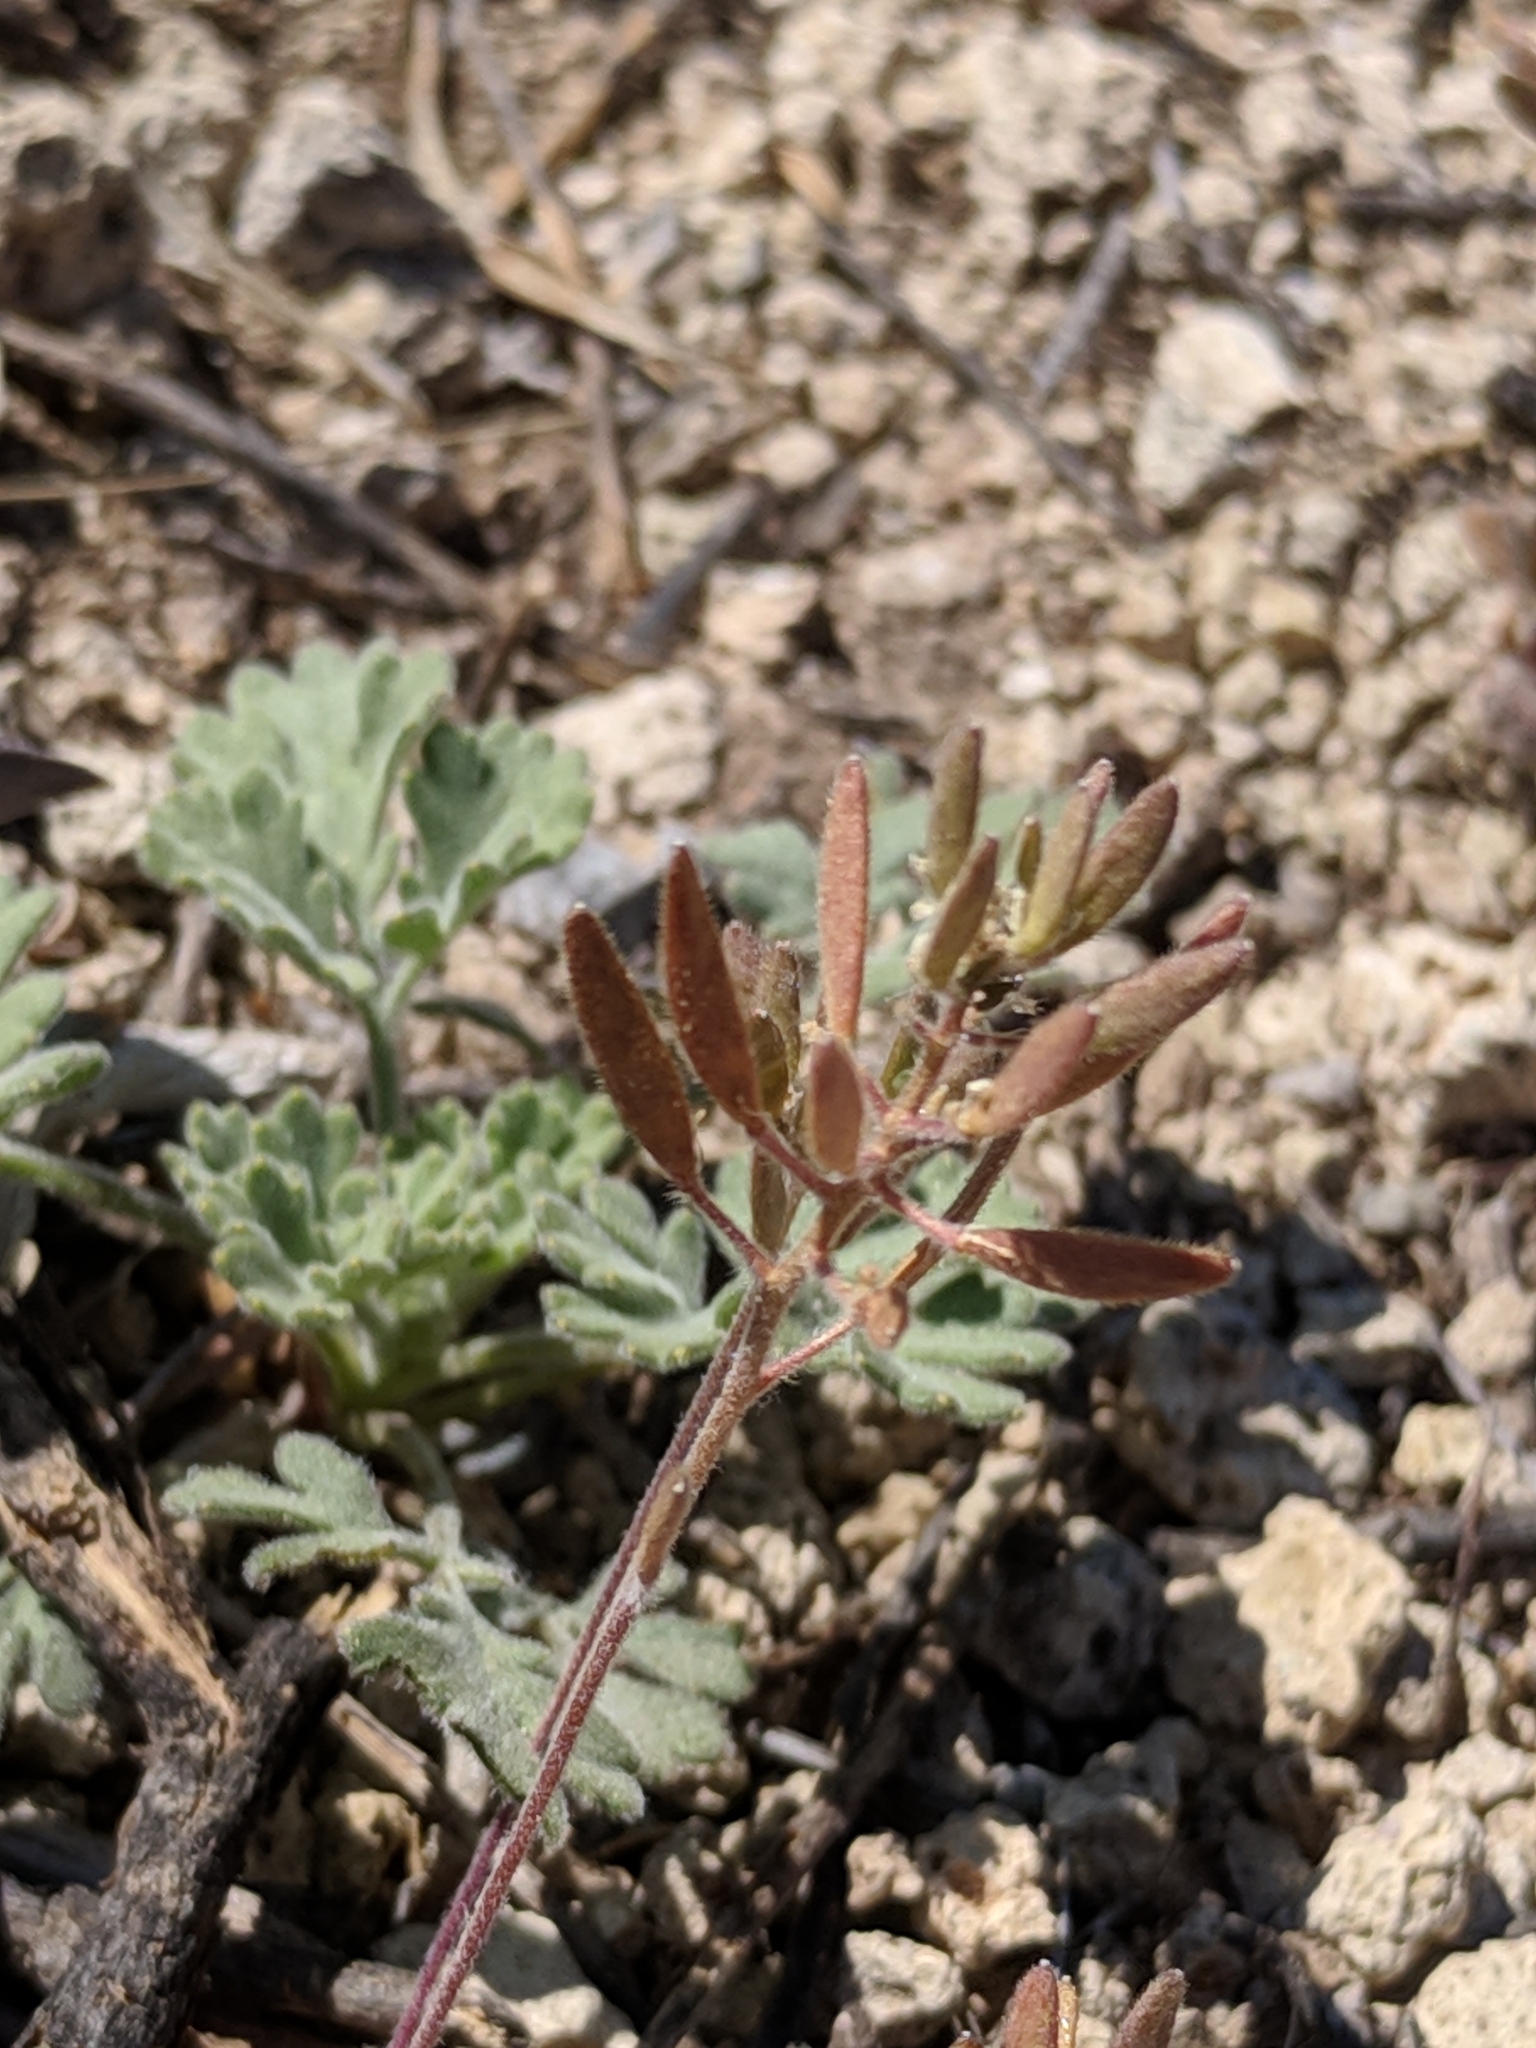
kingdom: Plantae
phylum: Tracheophyta
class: Magnoliopsida
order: Brassicales
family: Brassicaceae
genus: Tomostima
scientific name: Tomostima cuneifolia
